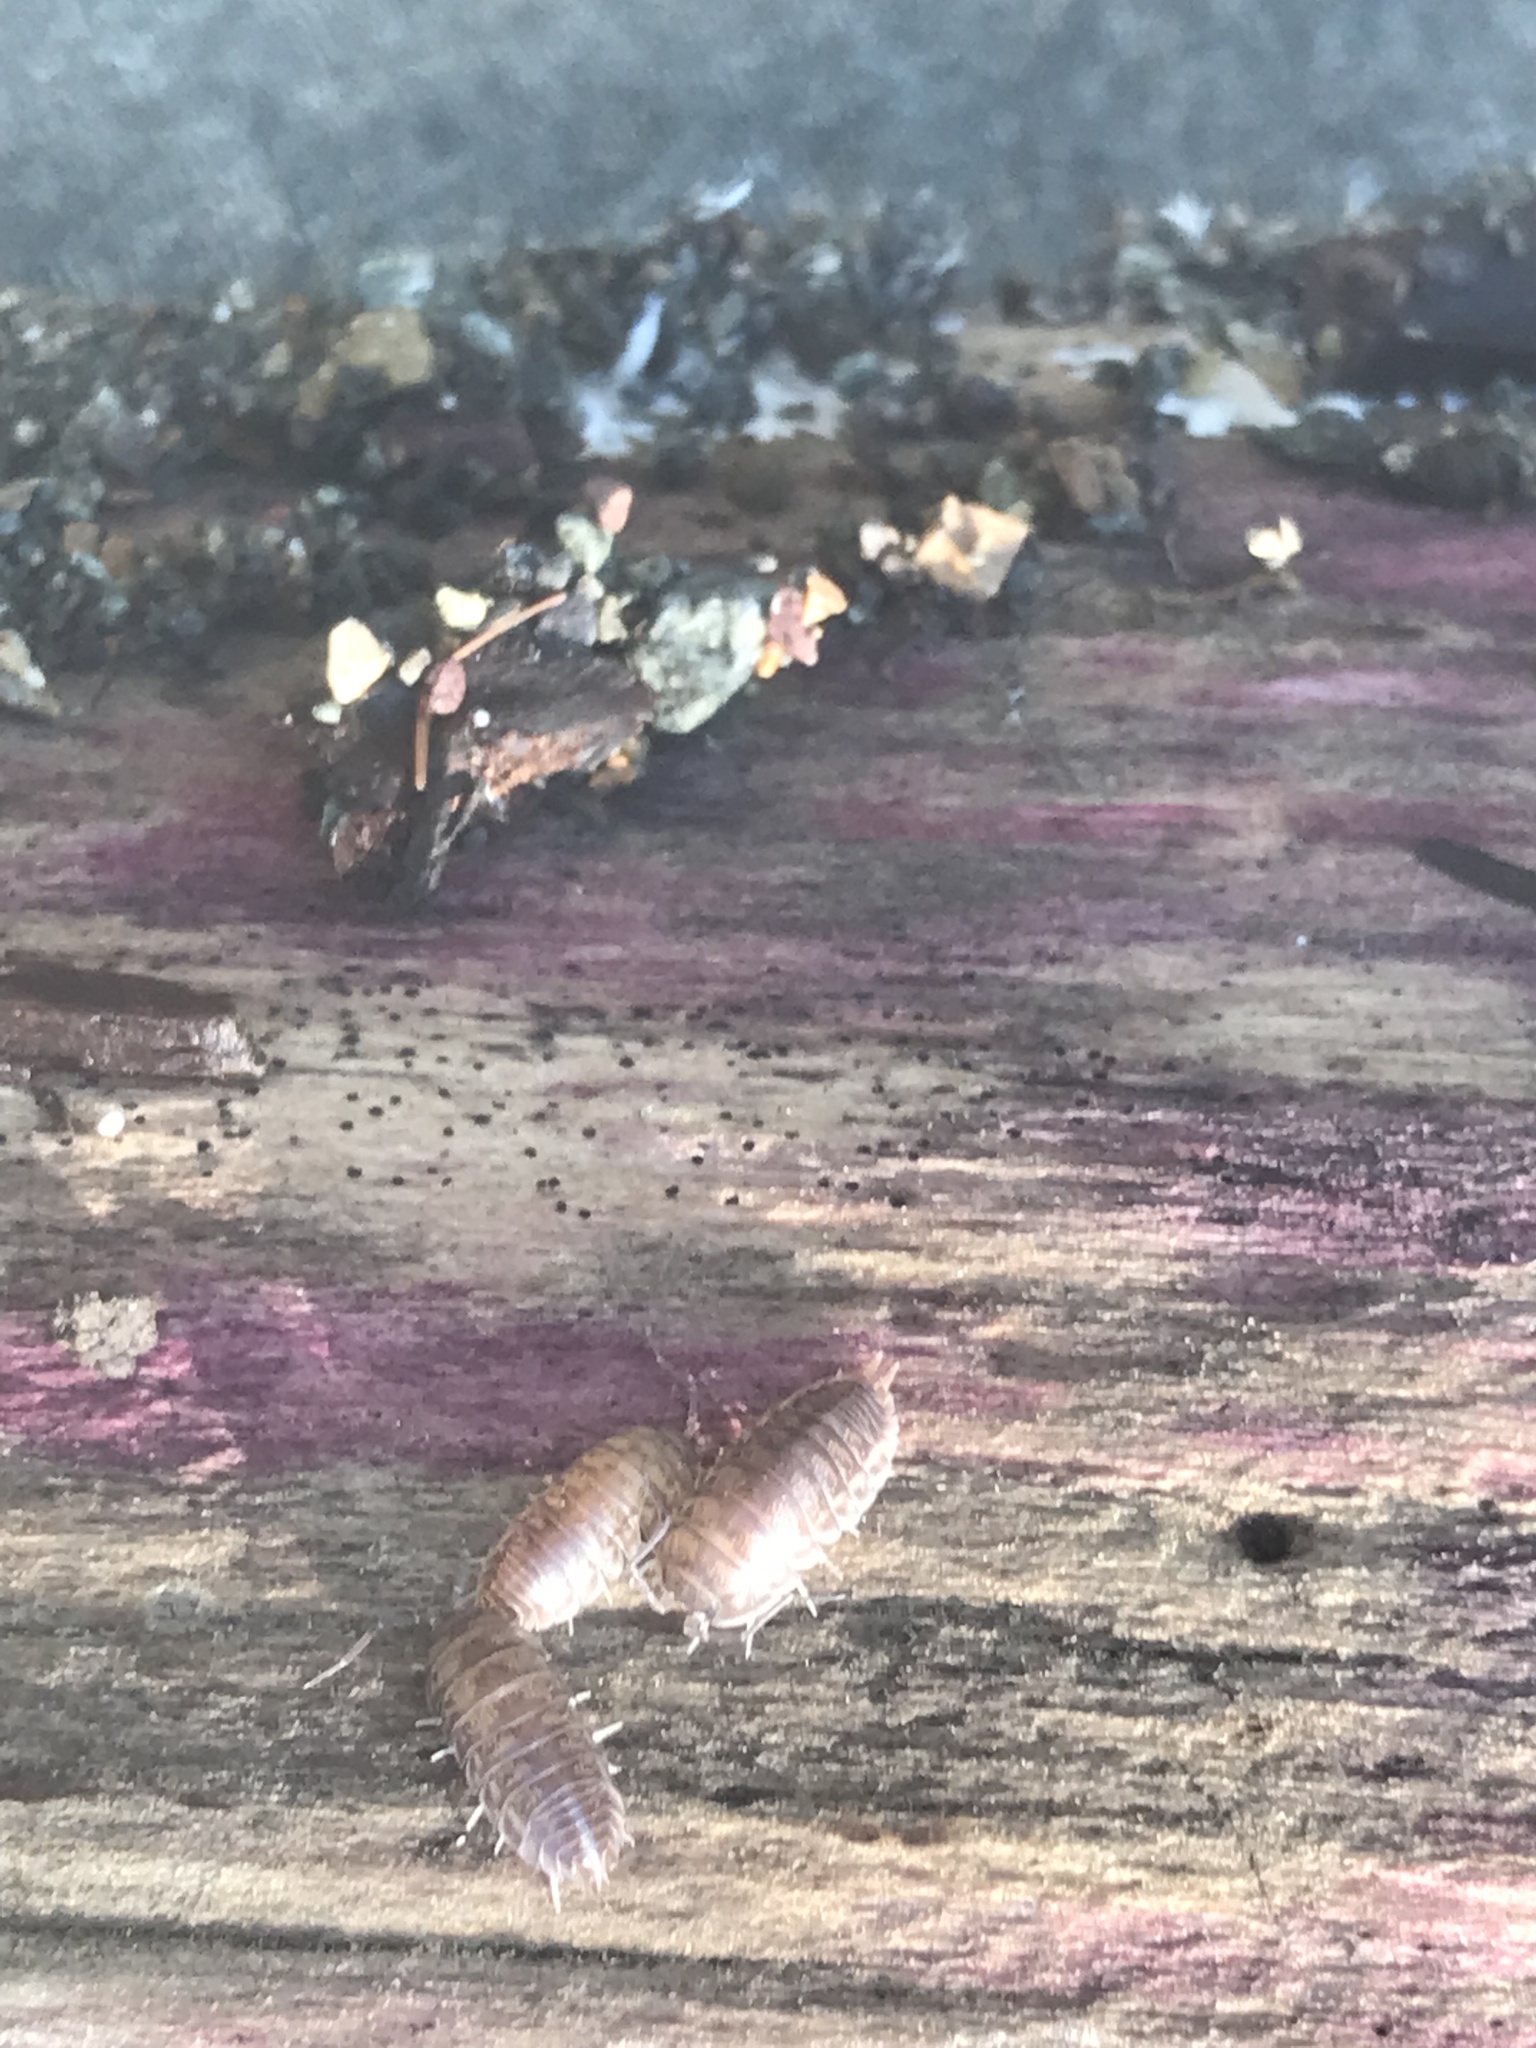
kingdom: Animalia
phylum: Arthropoda
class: Malacostraca
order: Isopoda
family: Cylisticidae
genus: Cylisticus
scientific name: Cylisticus convexus
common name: Curly woodlouse
